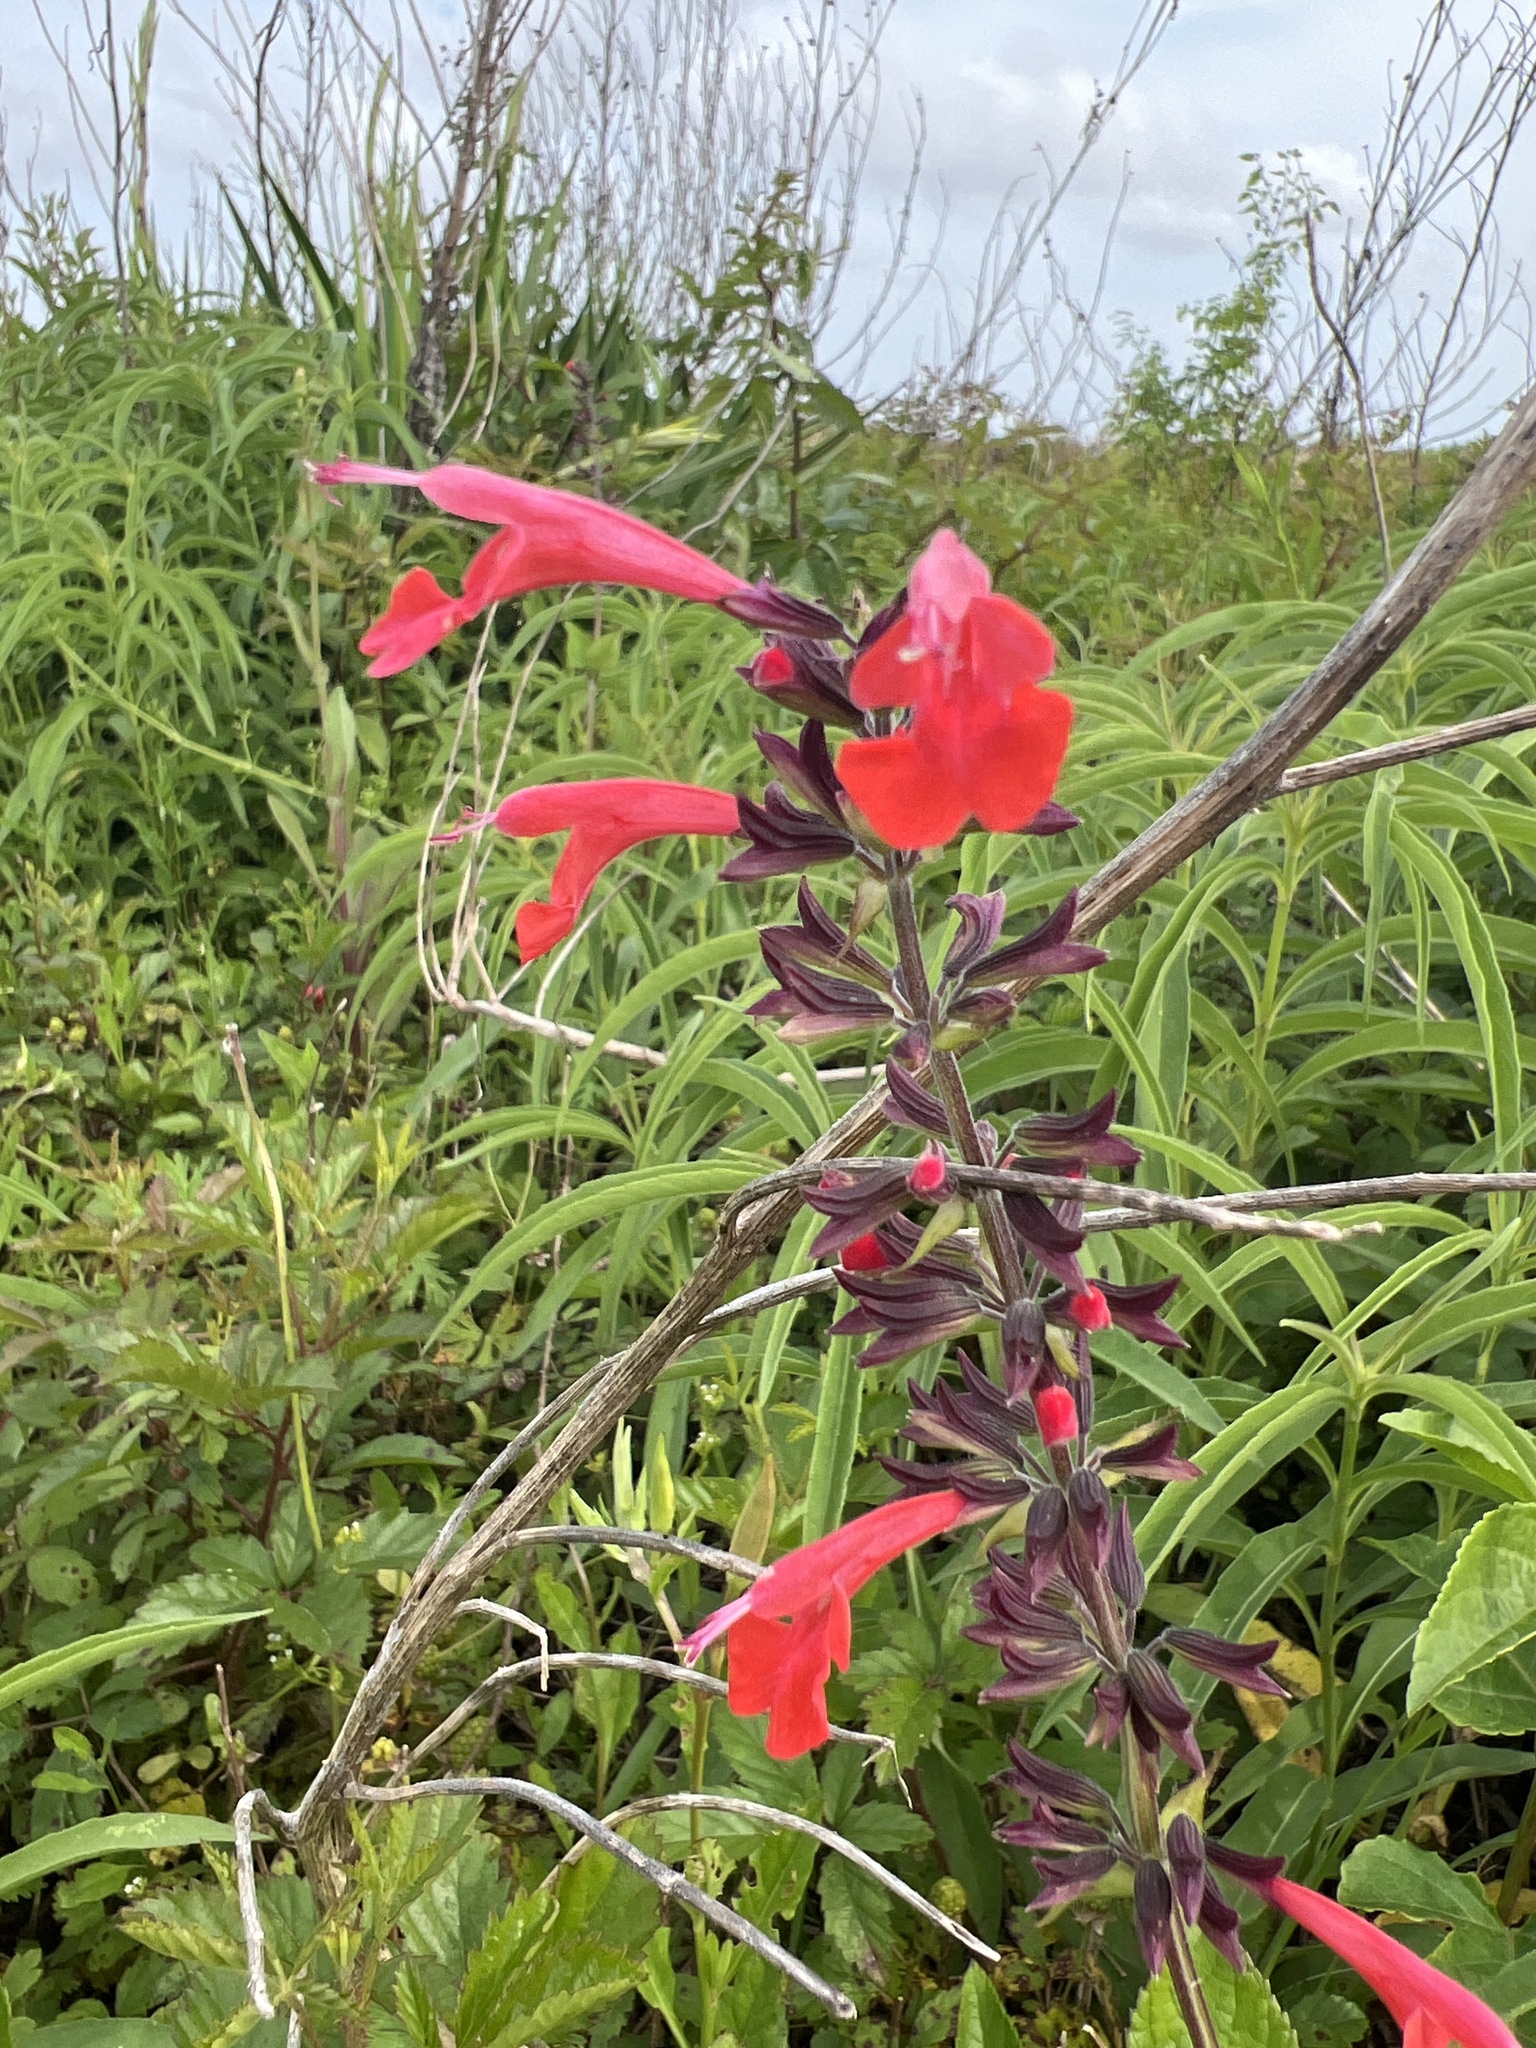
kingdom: Plantae
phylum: Tracheophyta
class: Magnoliopsida
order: Lamiales
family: Lamiaceae
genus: Salvia
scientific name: Salvia coccinea
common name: Blood sage
